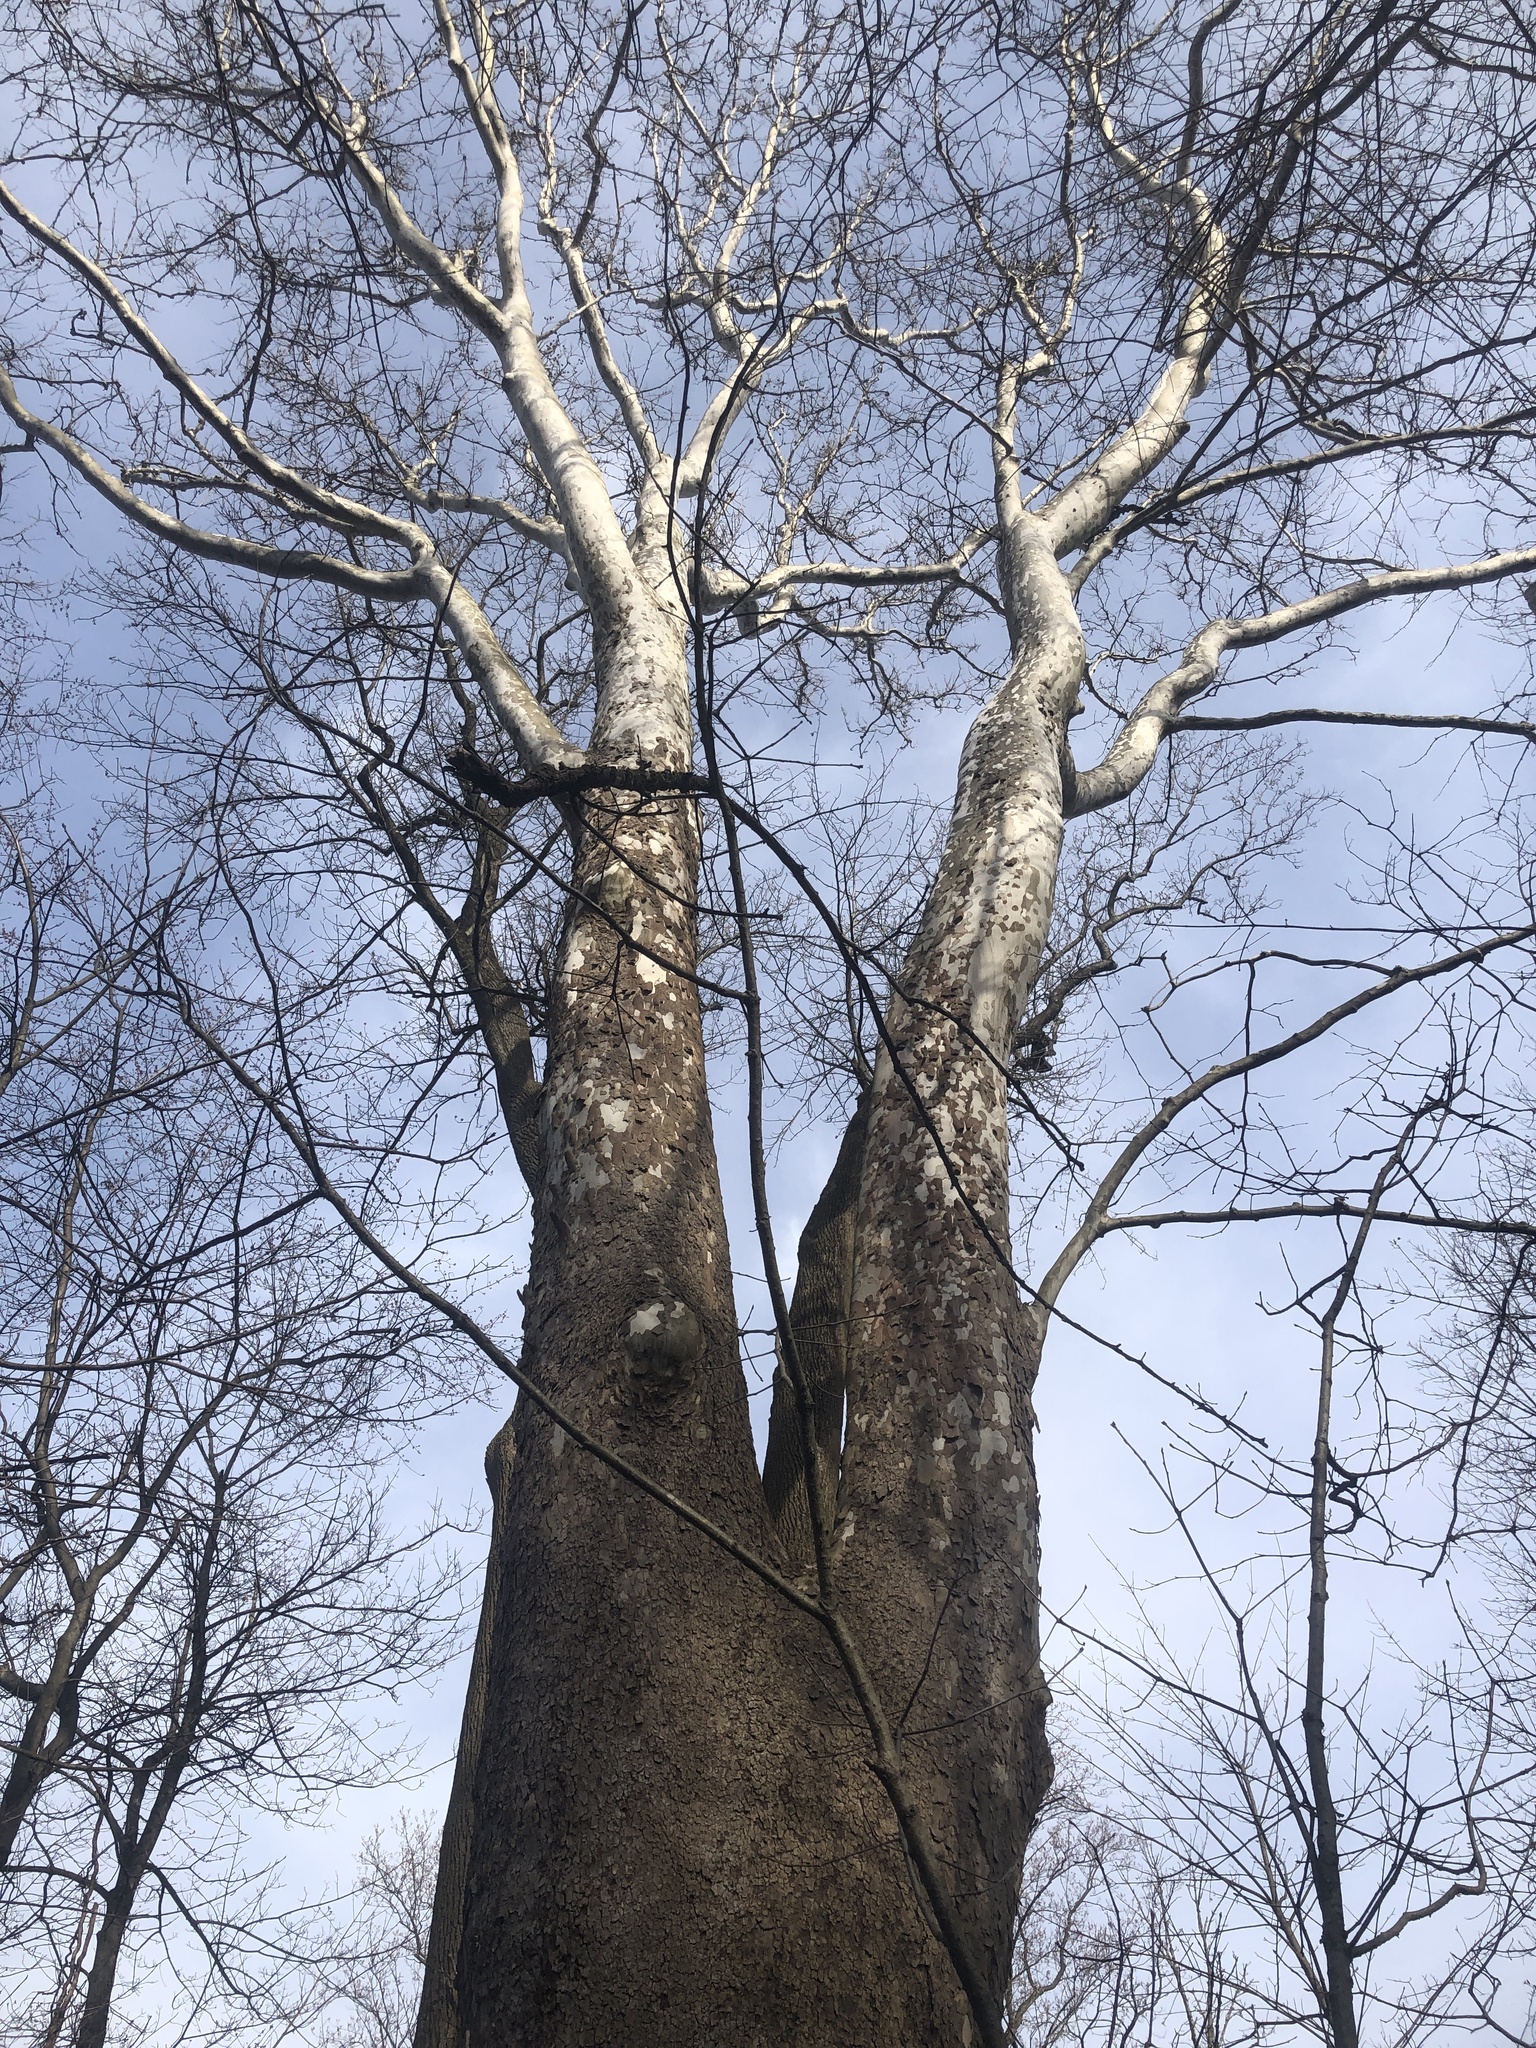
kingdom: Plantae
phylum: Tracheophyta
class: Magnoliopsida
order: Proteales
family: Platanaceae
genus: Platanus
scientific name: Platanus occidentalis
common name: American sycamore
